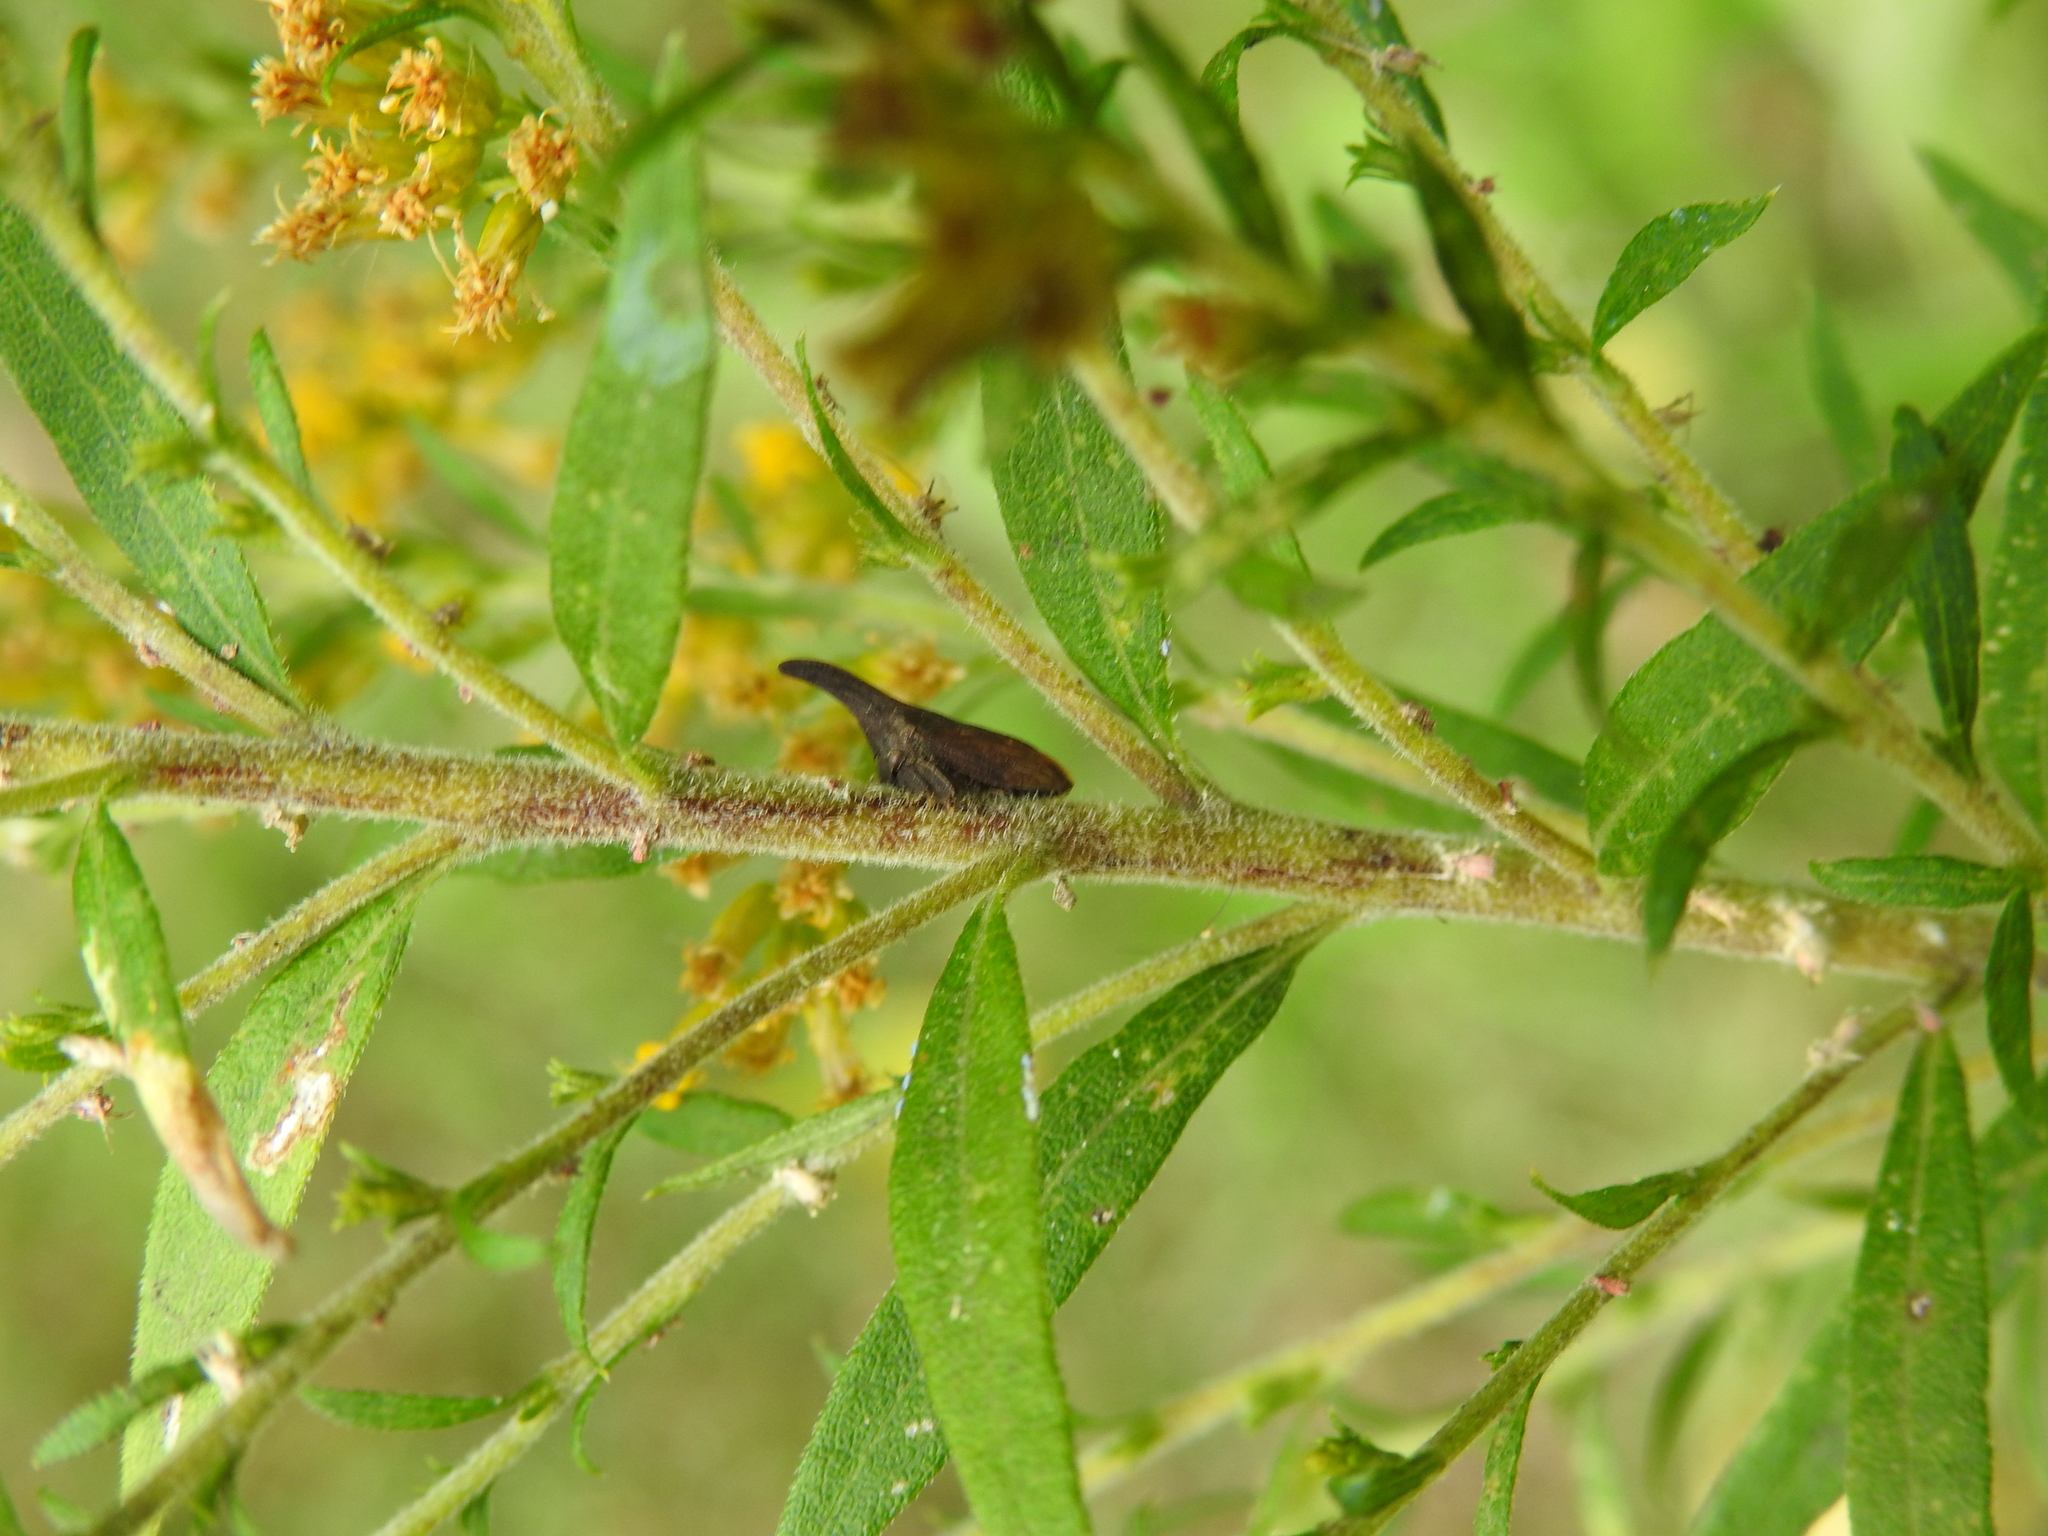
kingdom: Animalia
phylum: Arthropoda
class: Insecta
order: Hemiptera
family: Membracidae
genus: Enchenopa
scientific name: Enchenopa latipes
